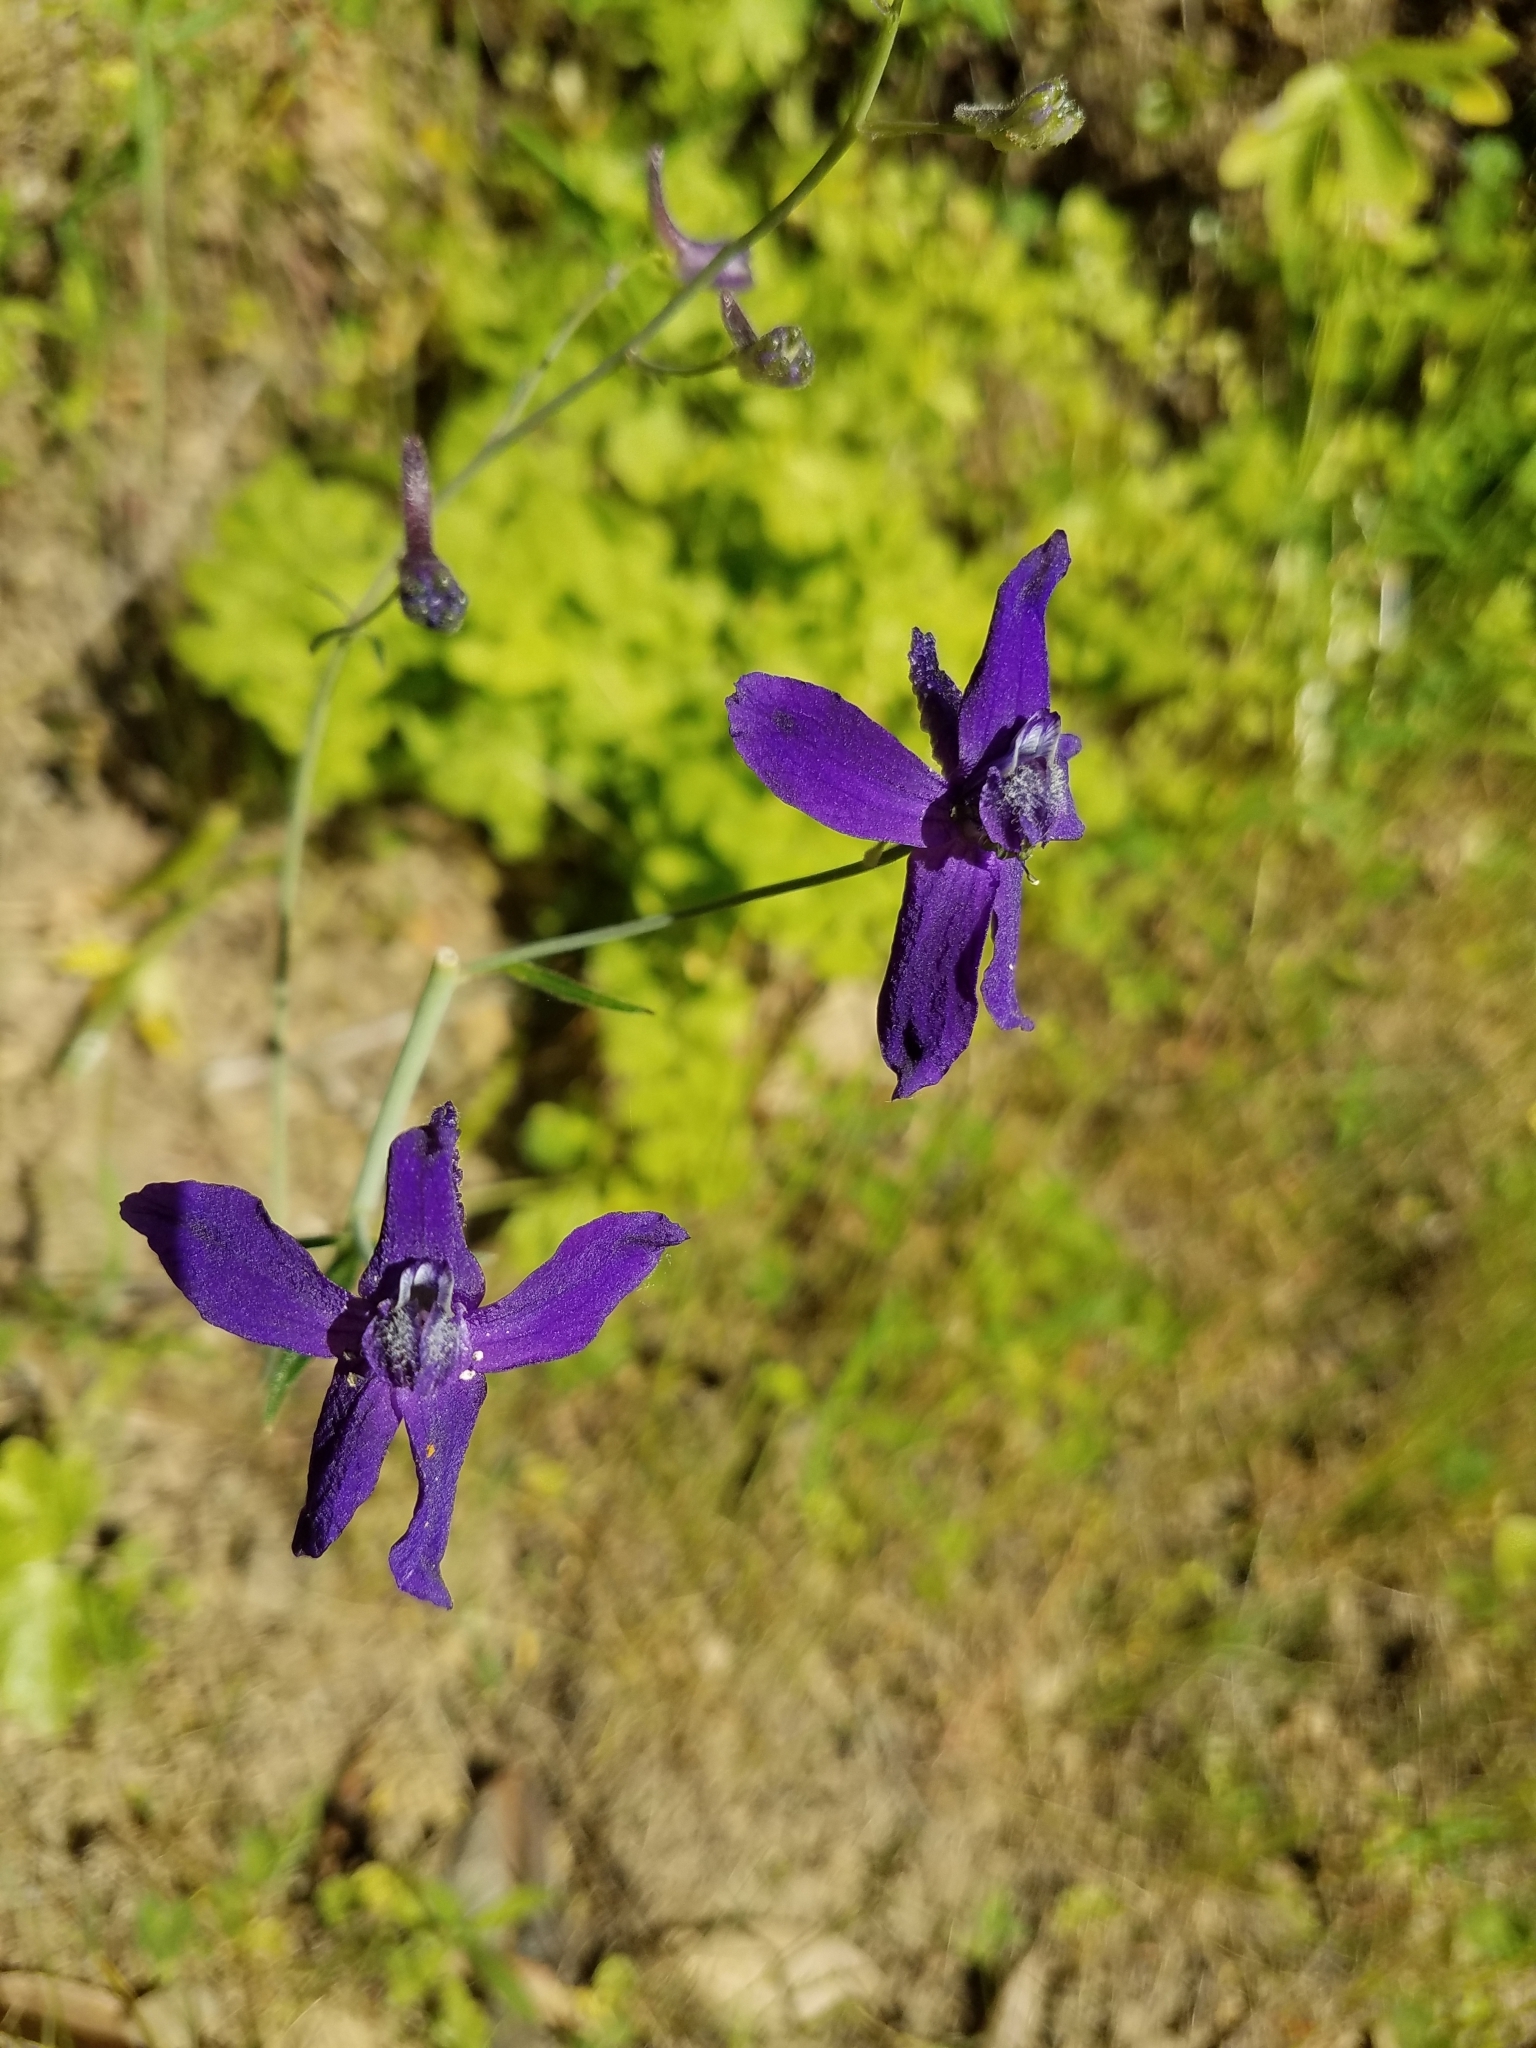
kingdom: Plantae
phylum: Tracheophyta
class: Magnoliopsida
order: Ranunculales
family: Ranunculaceae
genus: Delphinium
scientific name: Delphinium patens
